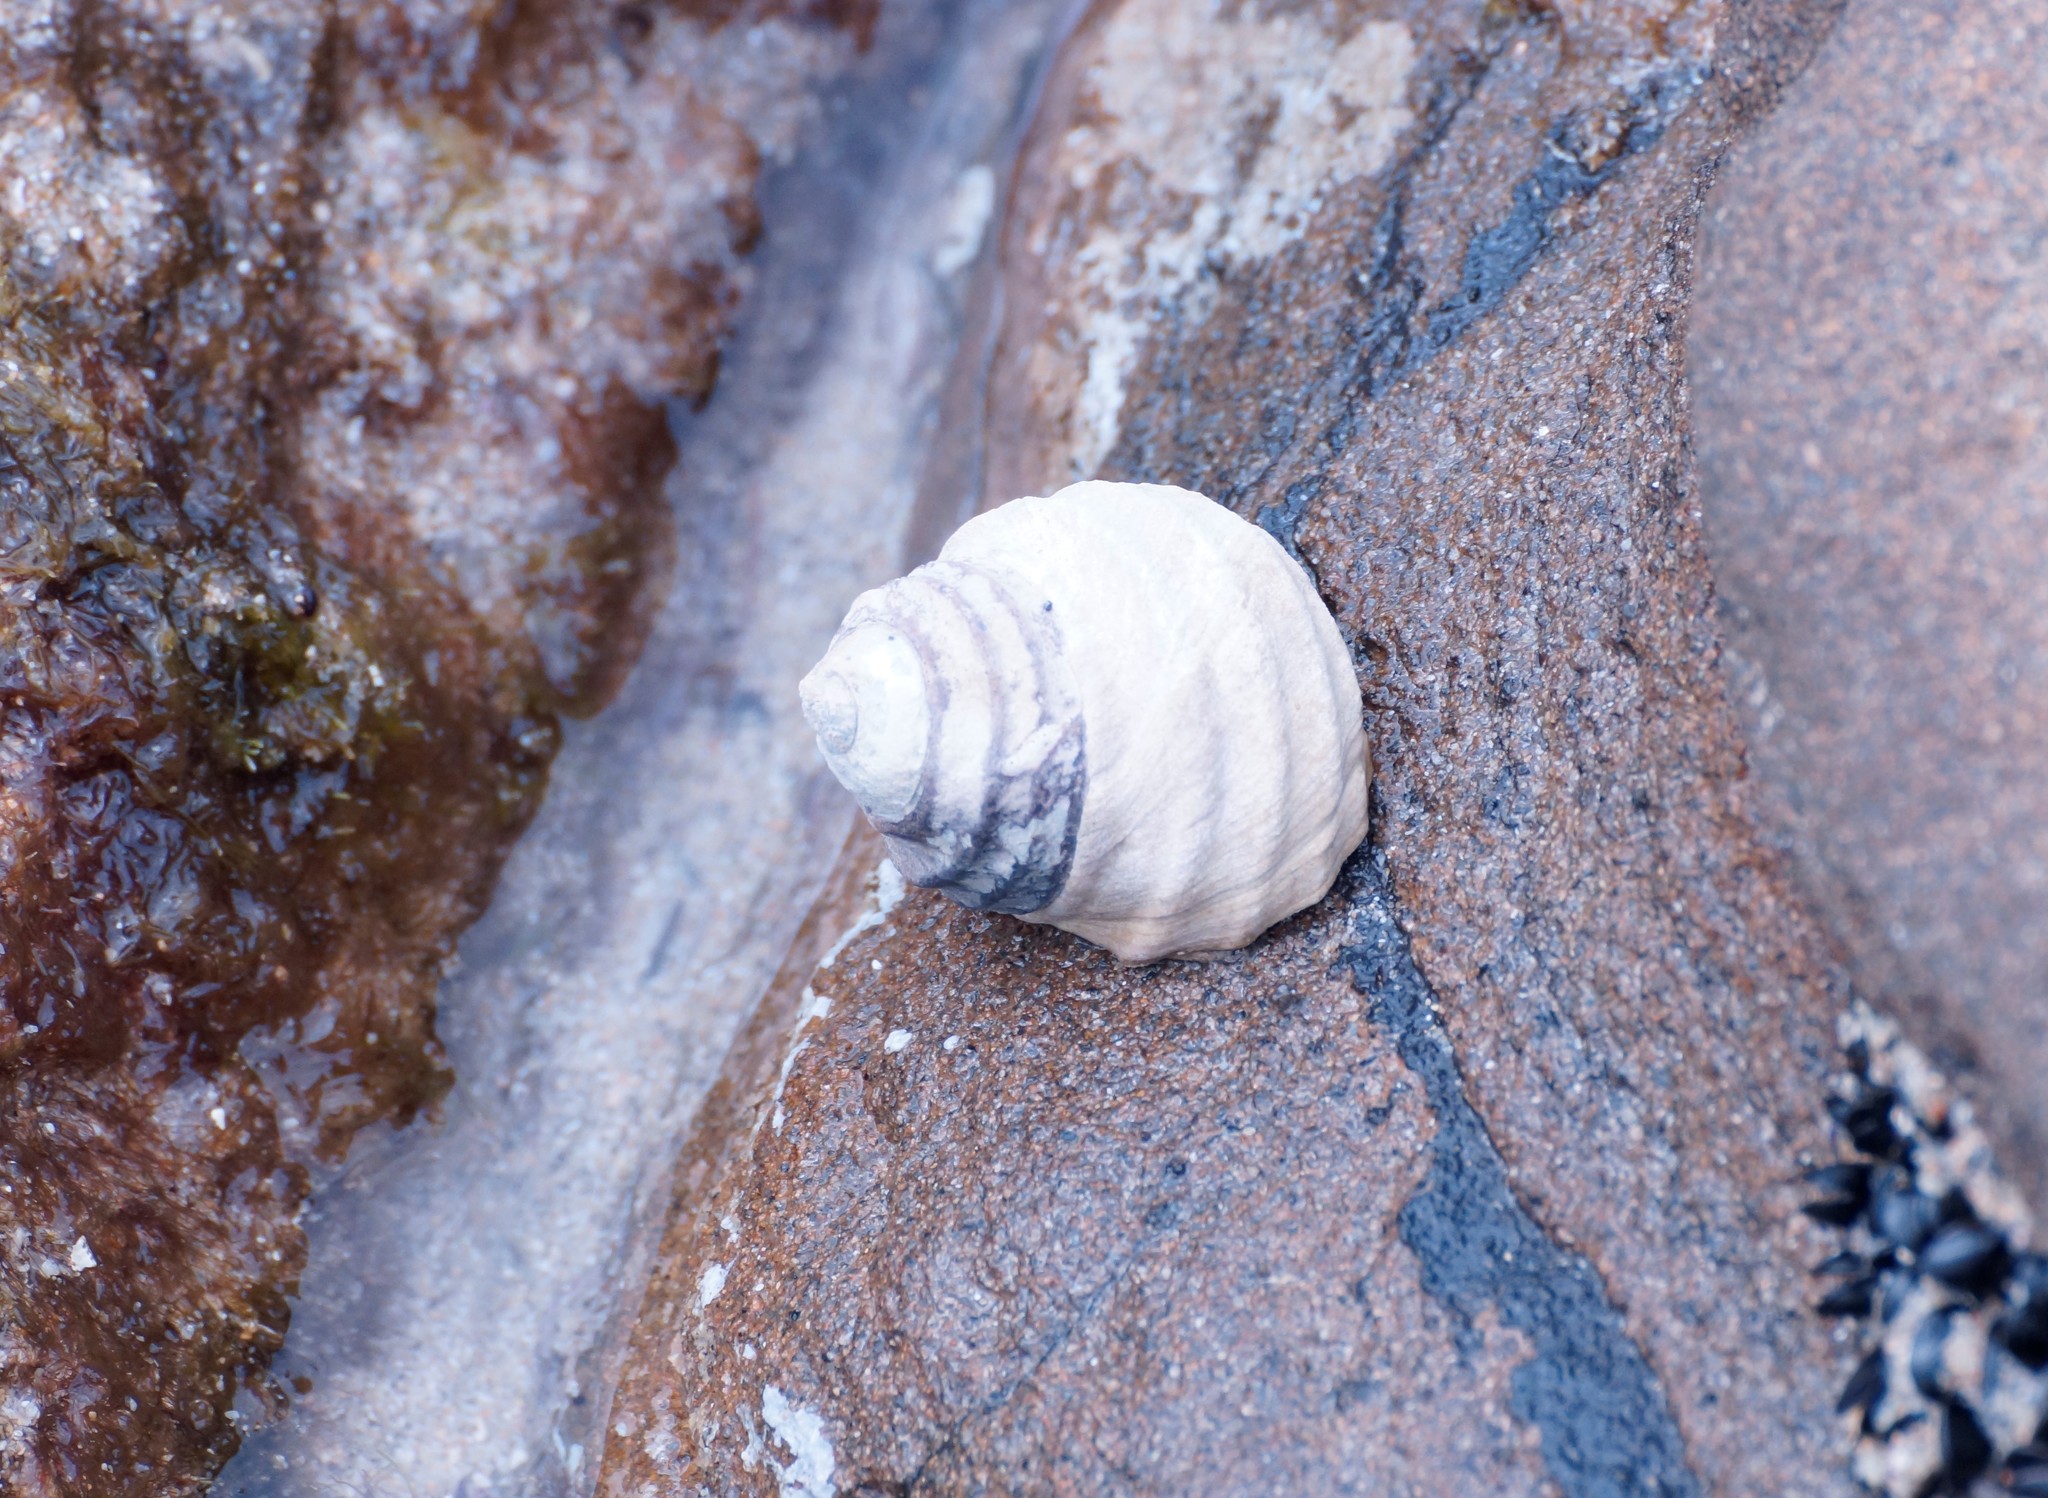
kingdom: Animalia
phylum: Mollusca
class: Gastropoda
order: Trochida
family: Trochidae
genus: Austrocochlea
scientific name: Austrocochlea constricta
